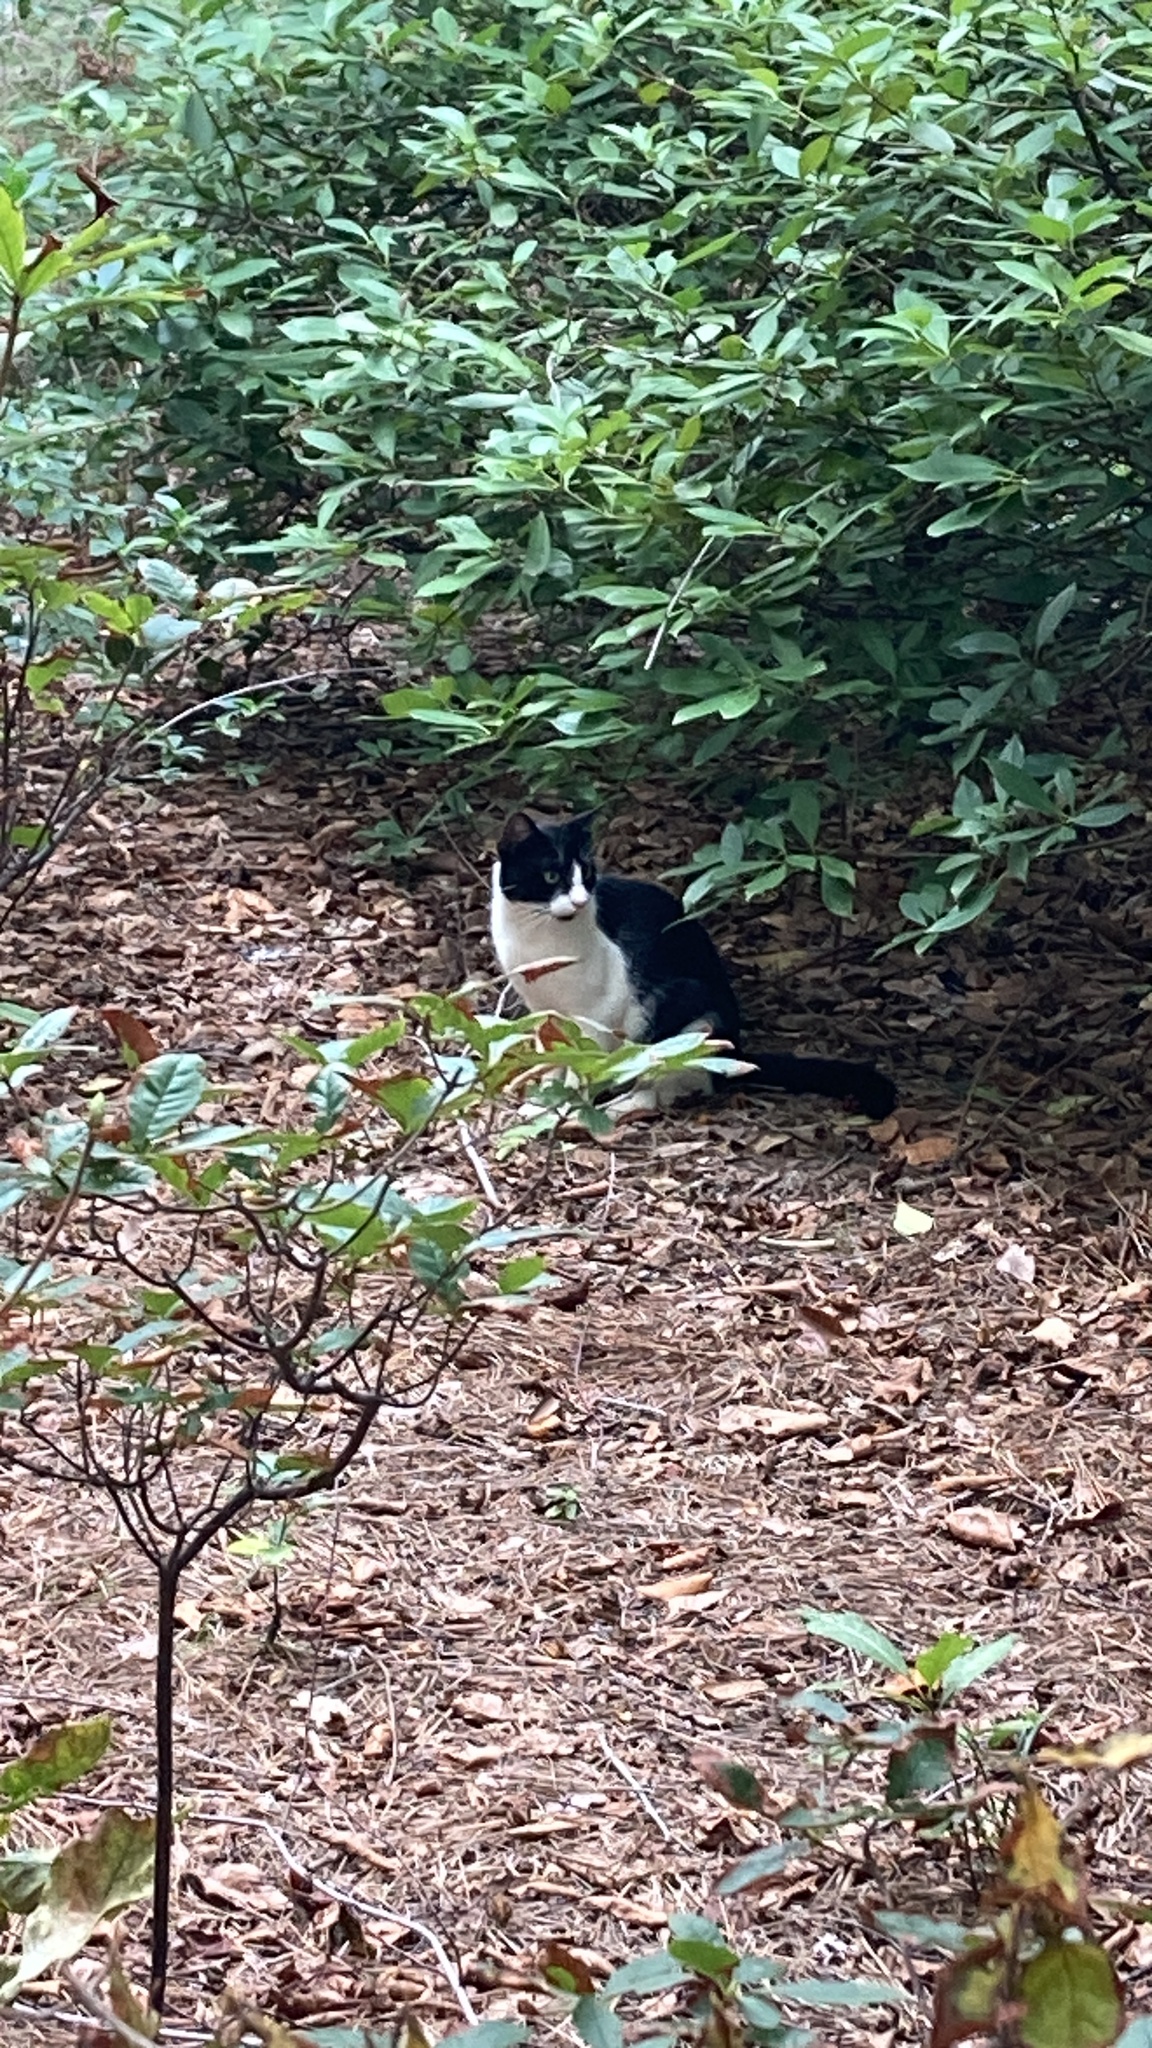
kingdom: Animalia
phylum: Chordata
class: Mammalia
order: Carnivora
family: Felidae
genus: Felis
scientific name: Felis catus
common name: Domestic cat
